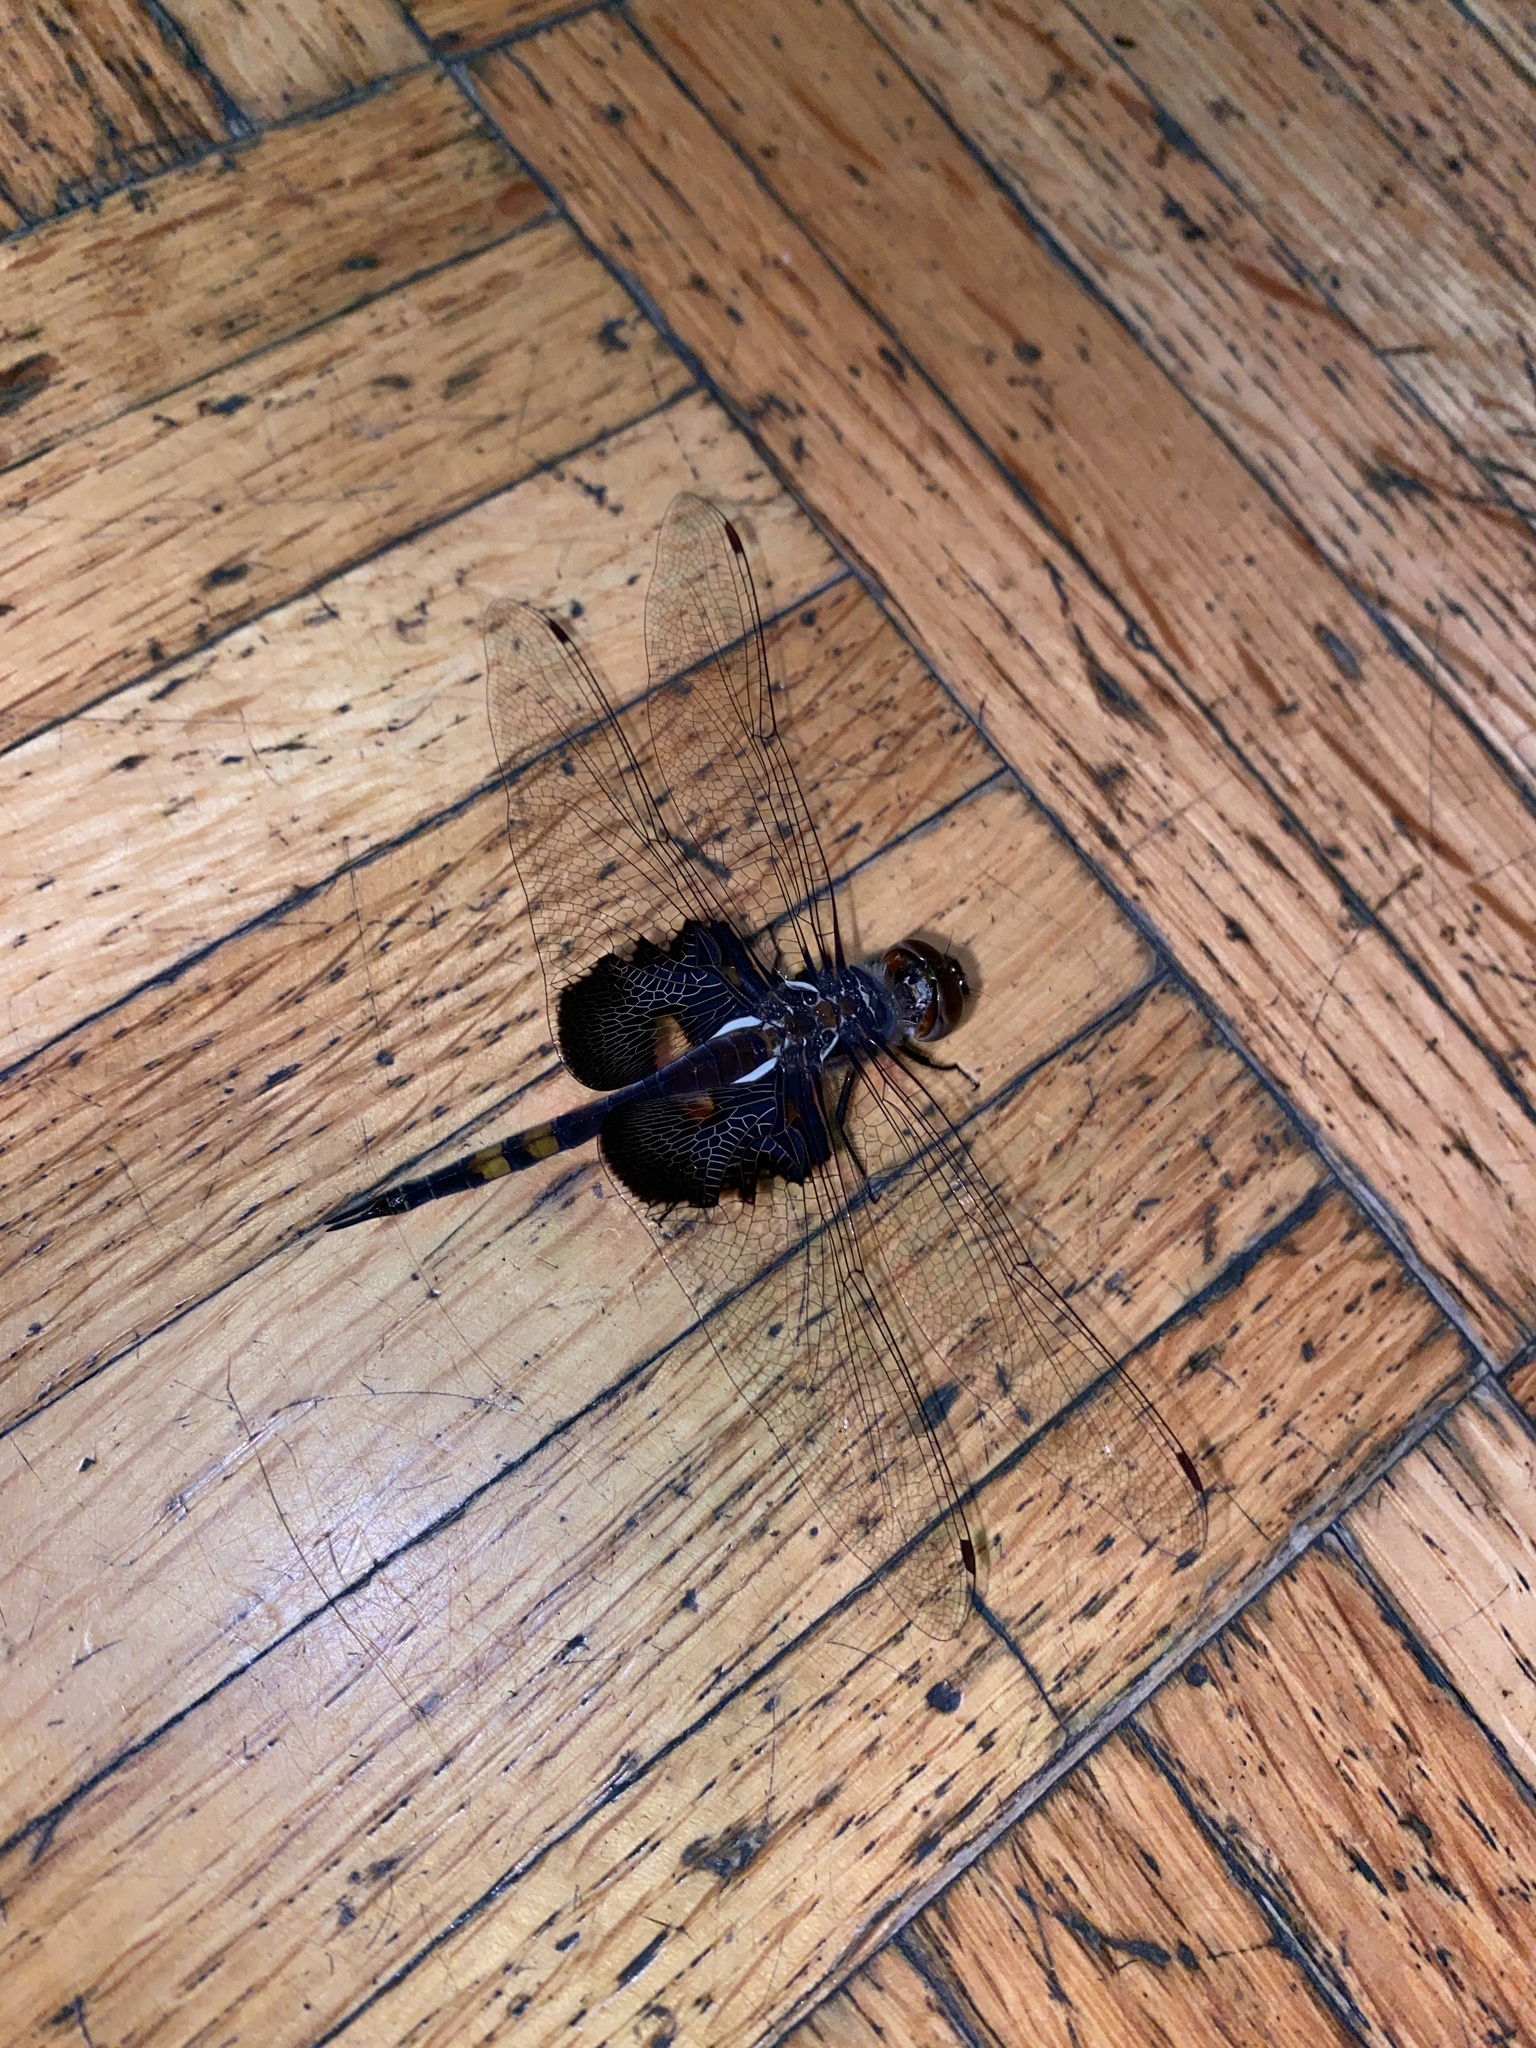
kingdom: Animalia
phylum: Arthropoda
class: Insecta
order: Odonata
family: Libellulidae
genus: Tramea
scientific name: Tramea lacerata
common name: Black saddlebags
